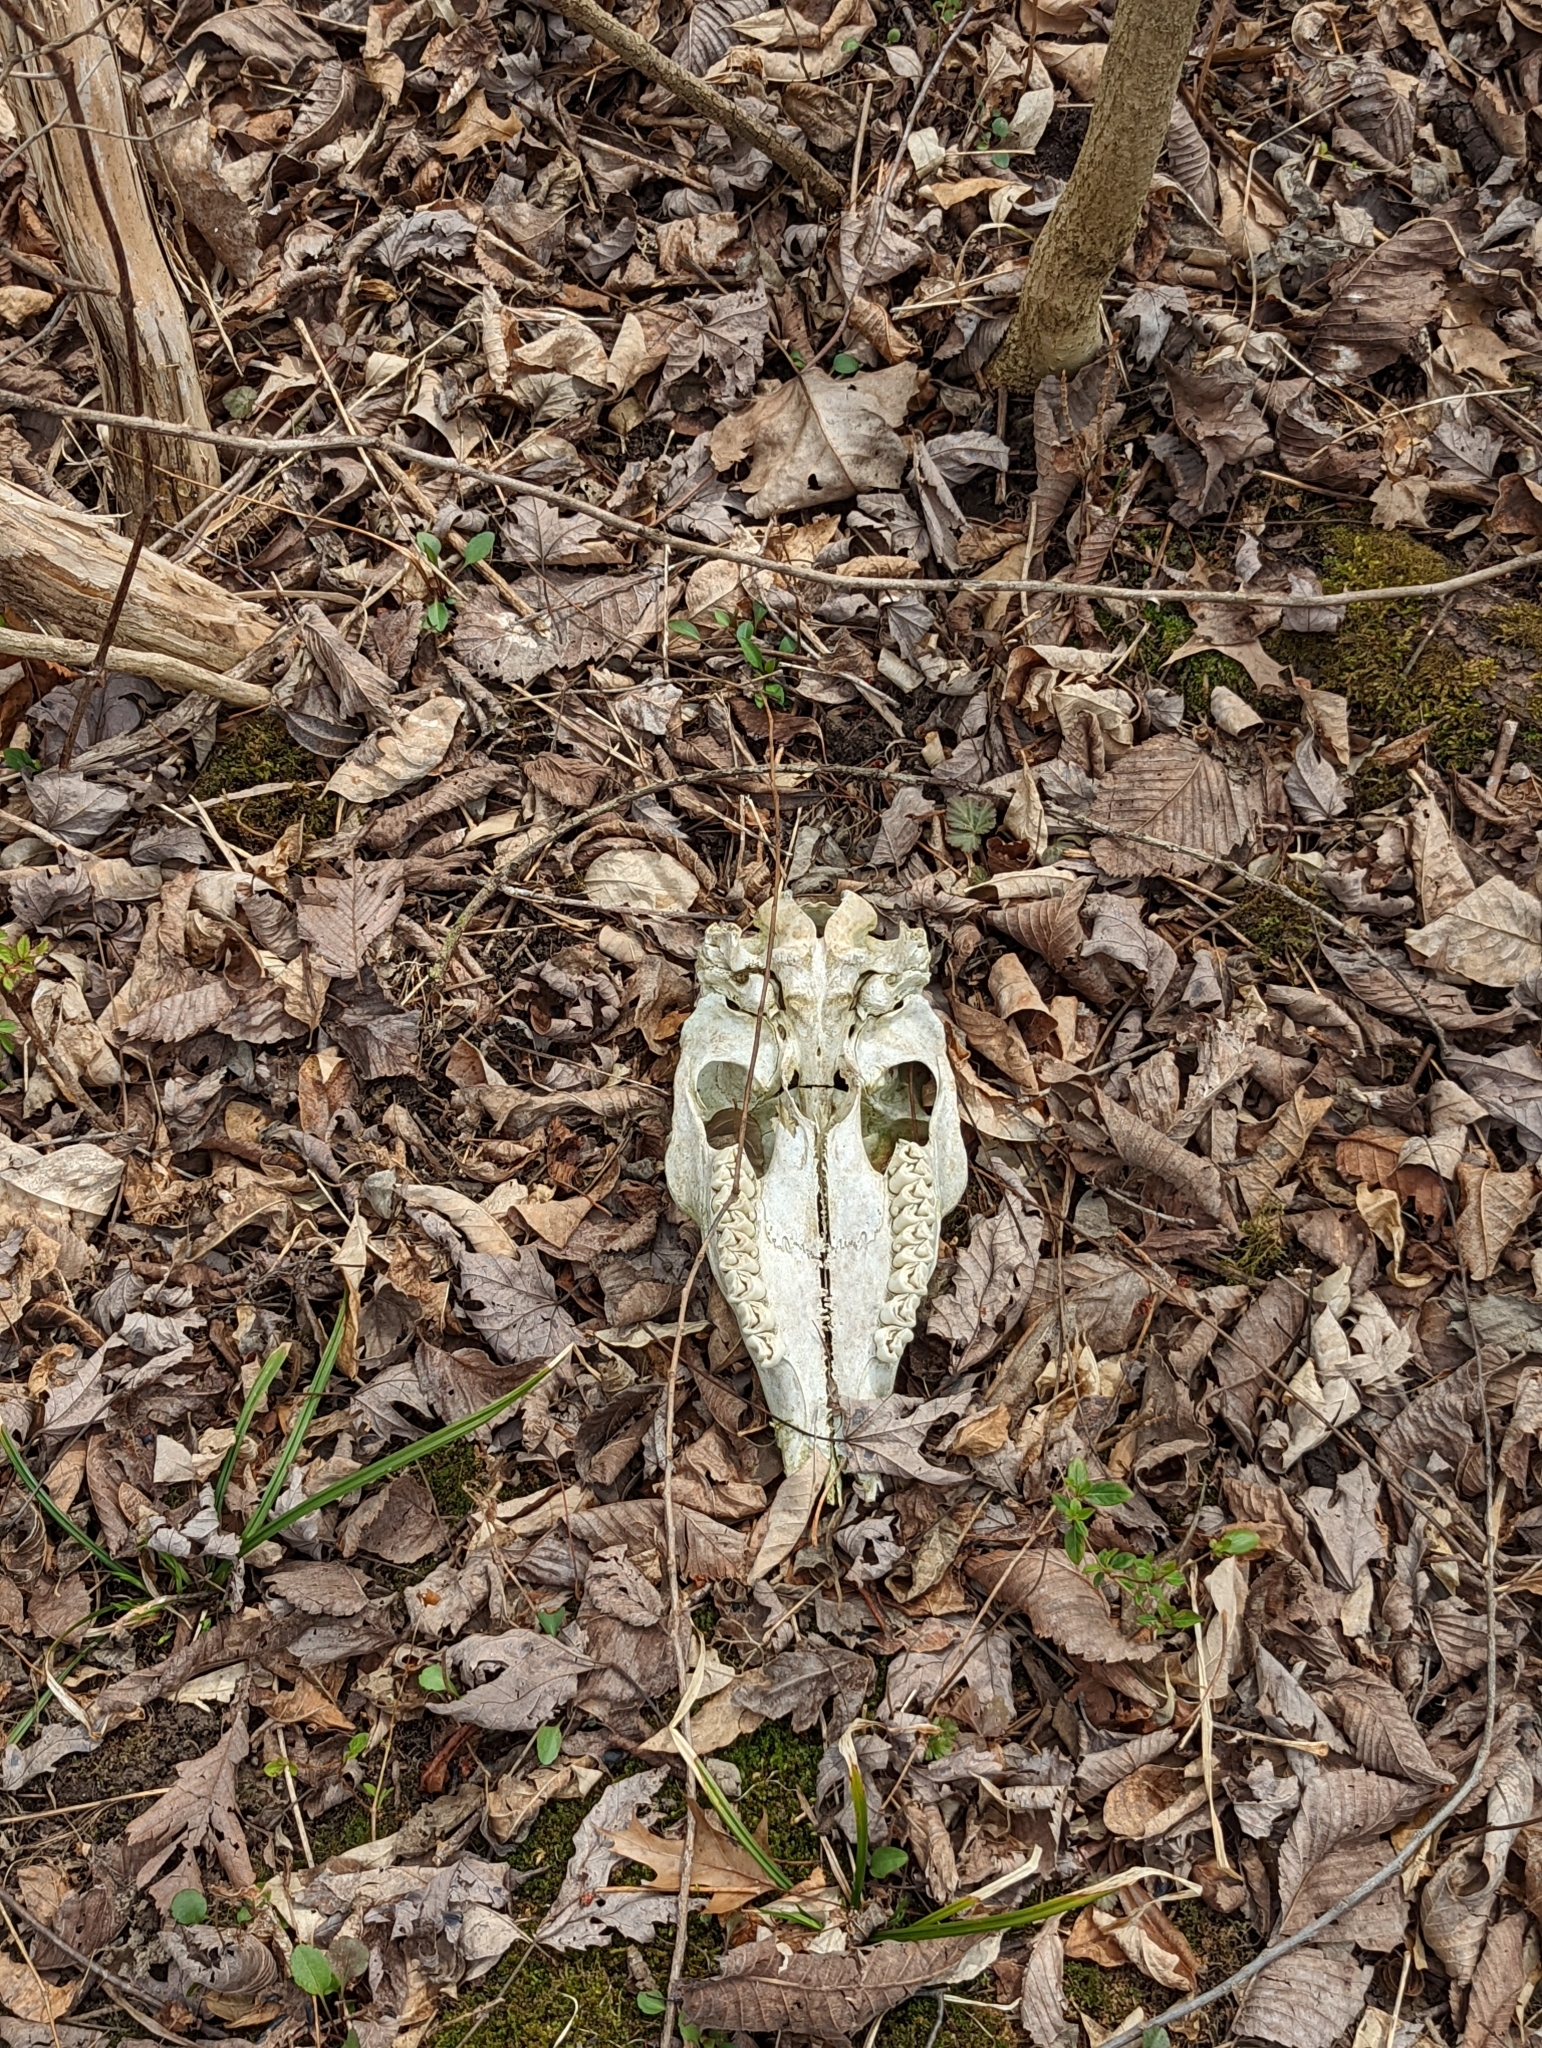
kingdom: Animalia
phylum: Chordata
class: Mammalia
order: Artiodactyla
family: Cervidae
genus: Odocoileus
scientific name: Odocoileus virginianus
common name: White-tailed deer
